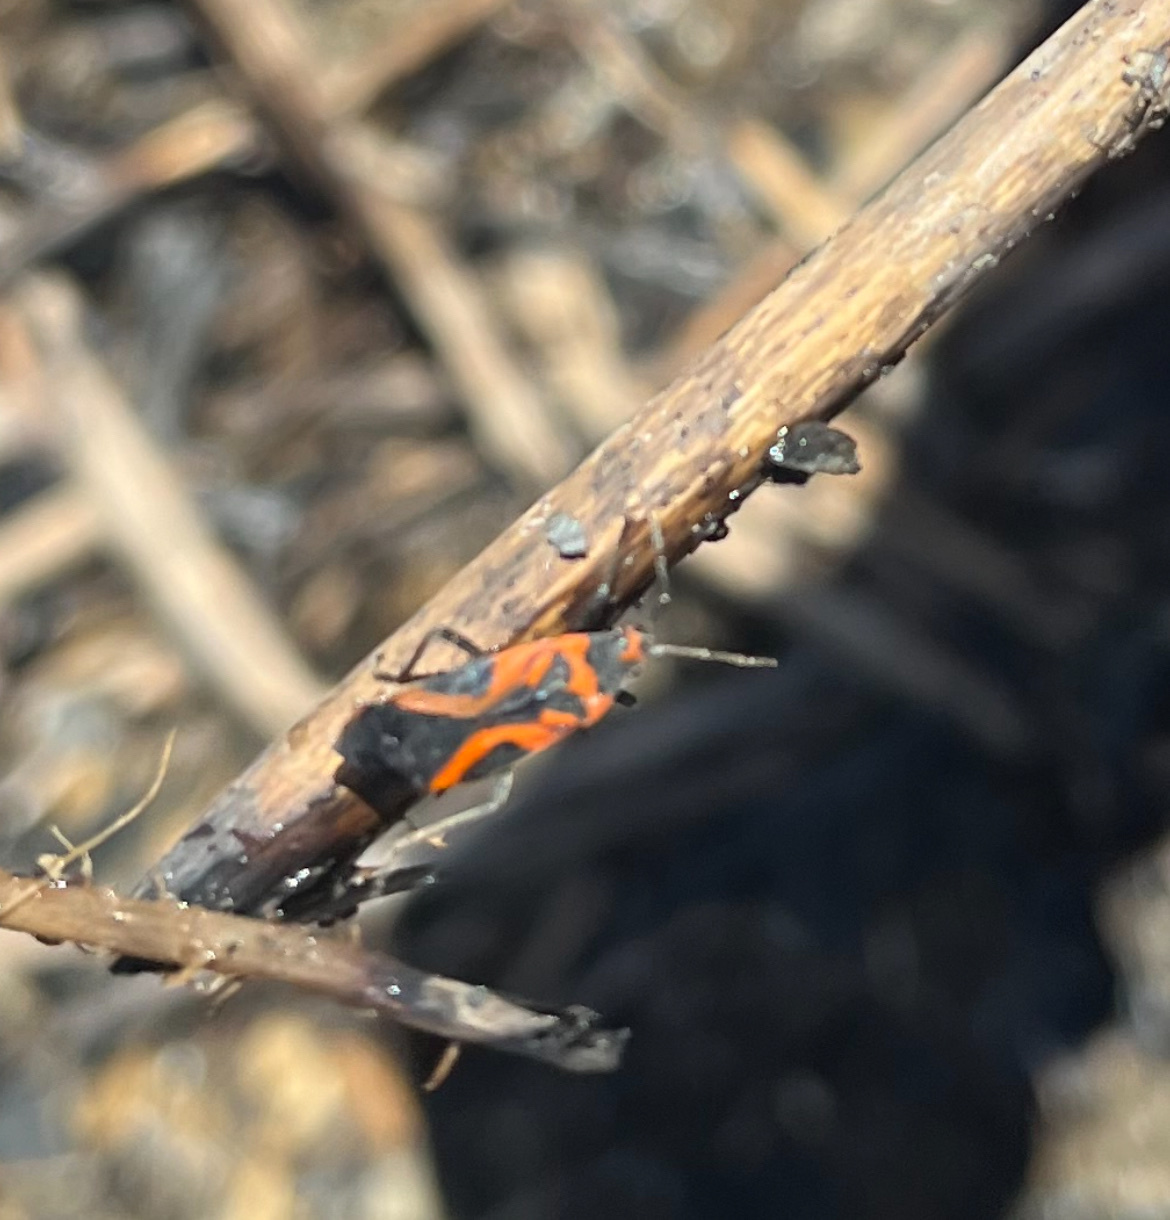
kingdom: Animalia
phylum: Arthropoda
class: Insecta
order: Hemiptera
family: Lygaeidae
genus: Lygaeus
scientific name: Lygaeus turcicus
